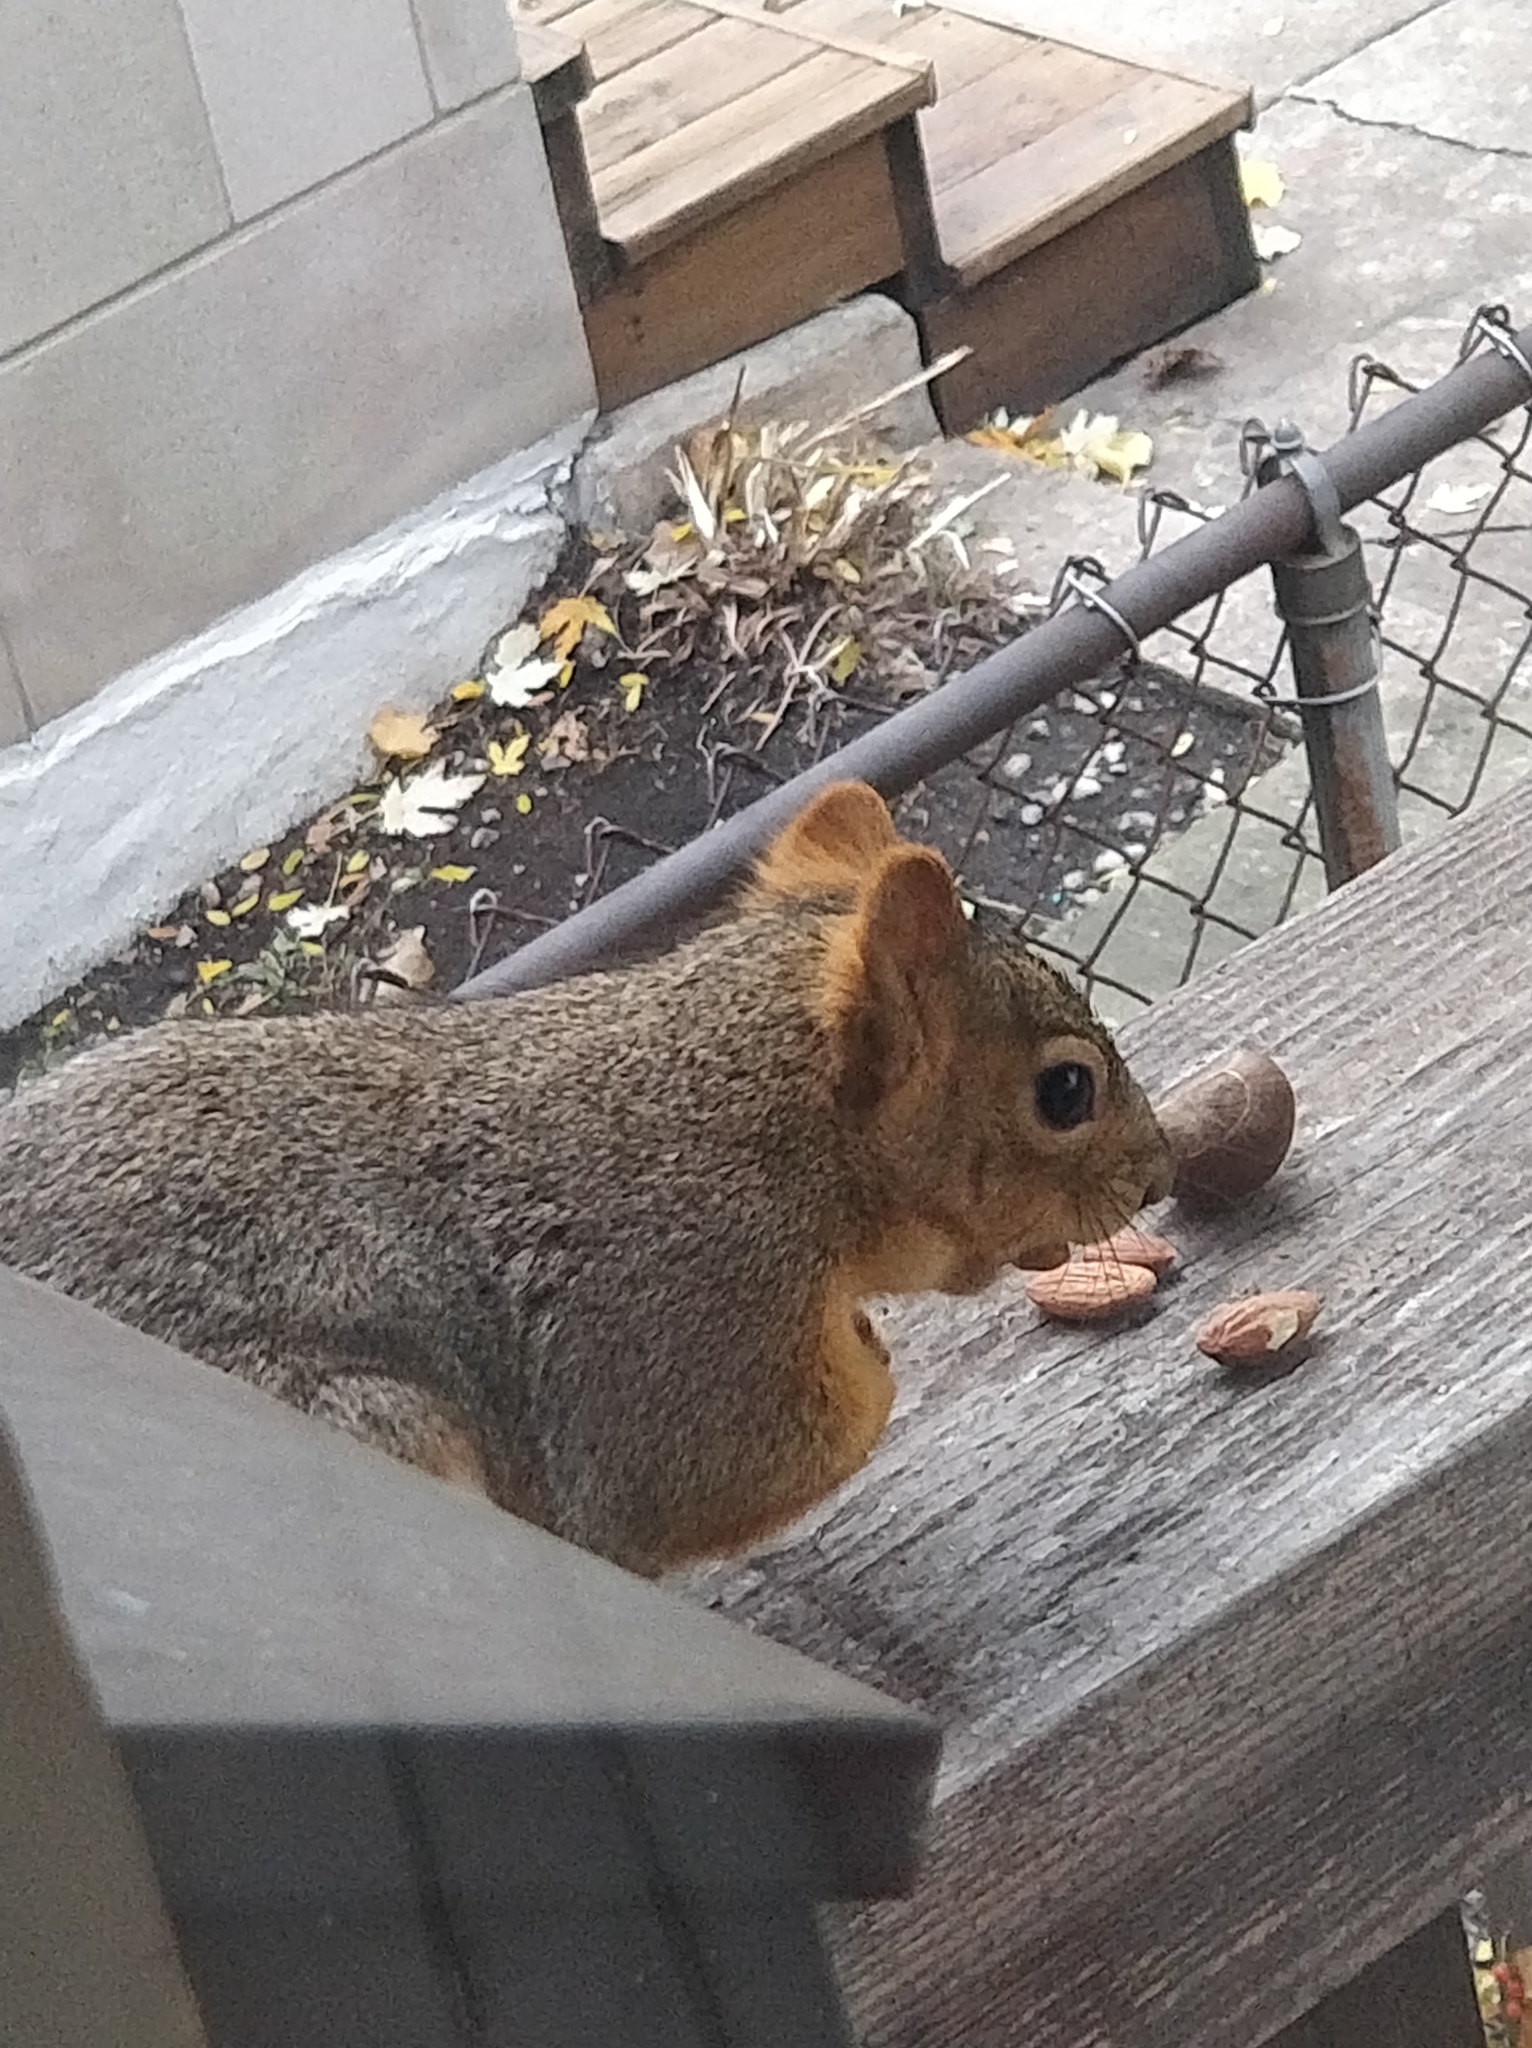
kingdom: Animalia
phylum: Chordata
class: Mammalia
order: Rodentia
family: Sciuridae
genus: Sciurus
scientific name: Sciurus niger
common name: Fox squirrel
